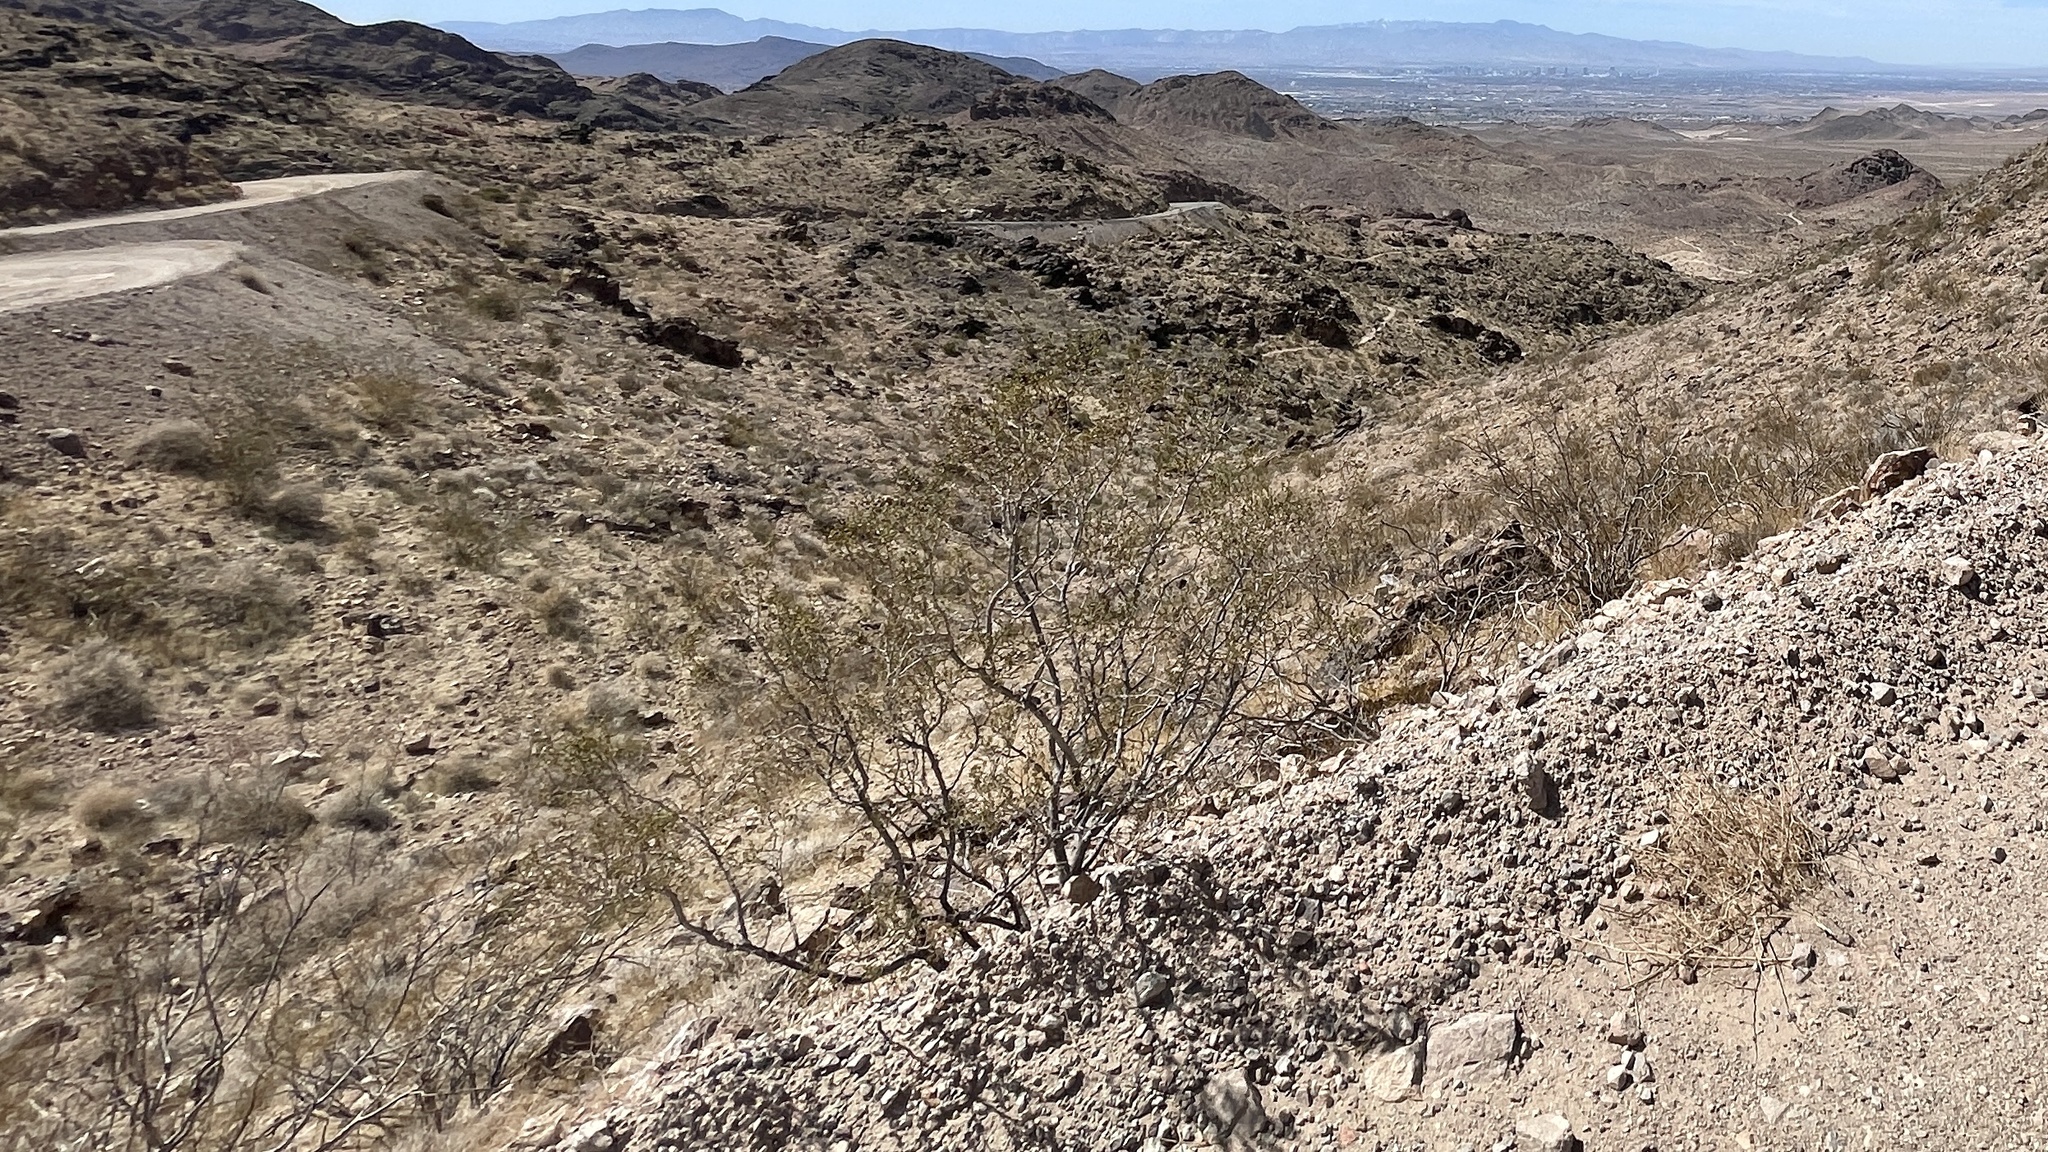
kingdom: Plantae
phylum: Tracheophyta
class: Magnoliopsida
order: Zygophyllales
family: Zygophyllaceae
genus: Larrea
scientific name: Larrea tridentata
